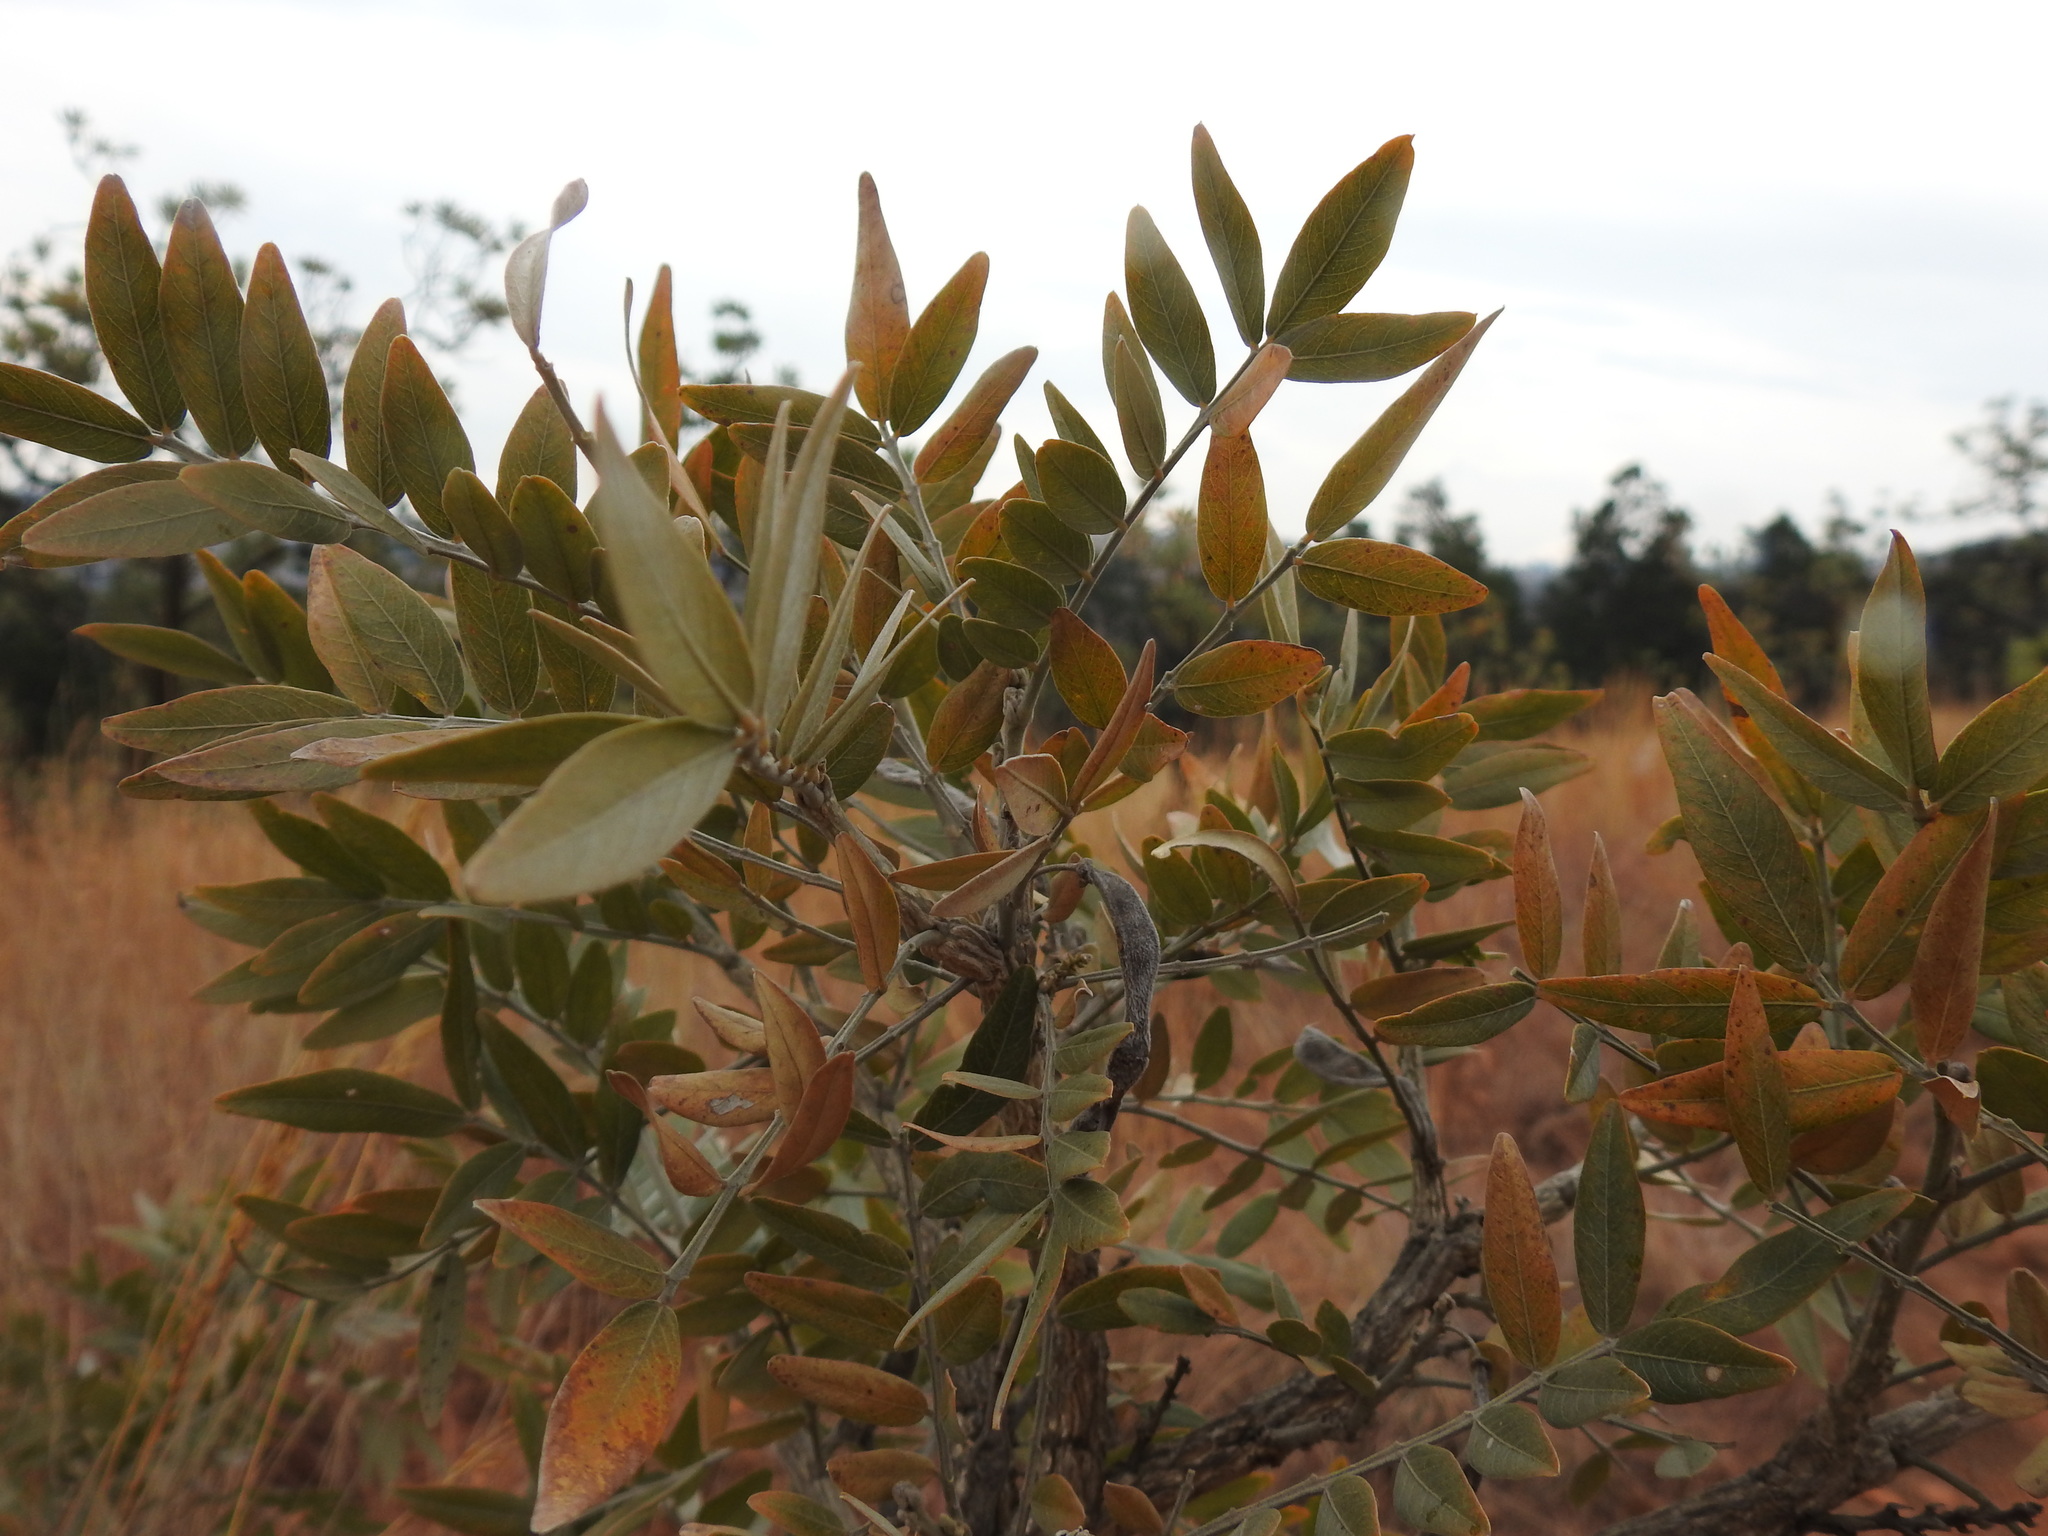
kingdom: Plantae
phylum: Tracheophyta
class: Magnoliopsida
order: Fabales
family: Fabaceae
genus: Mundulea
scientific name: Mundulea sericea
